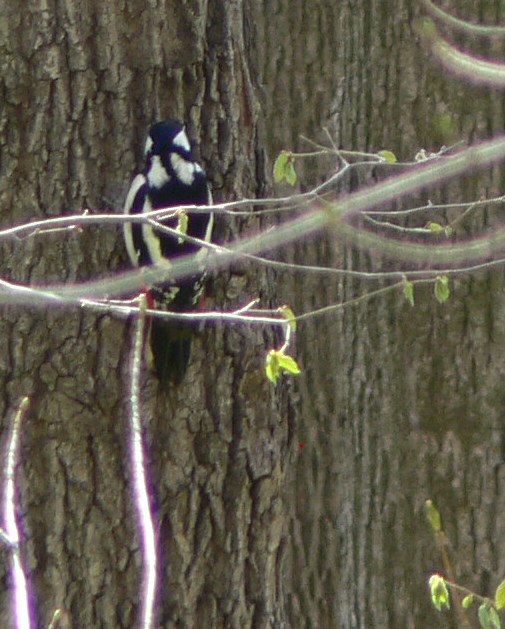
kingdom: Animalia
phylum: Chordata
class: Aves
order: Piciformes
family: Picidae
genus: Dendrocopos
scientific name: Dendrocopos major
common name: Great spotted woodpecker
